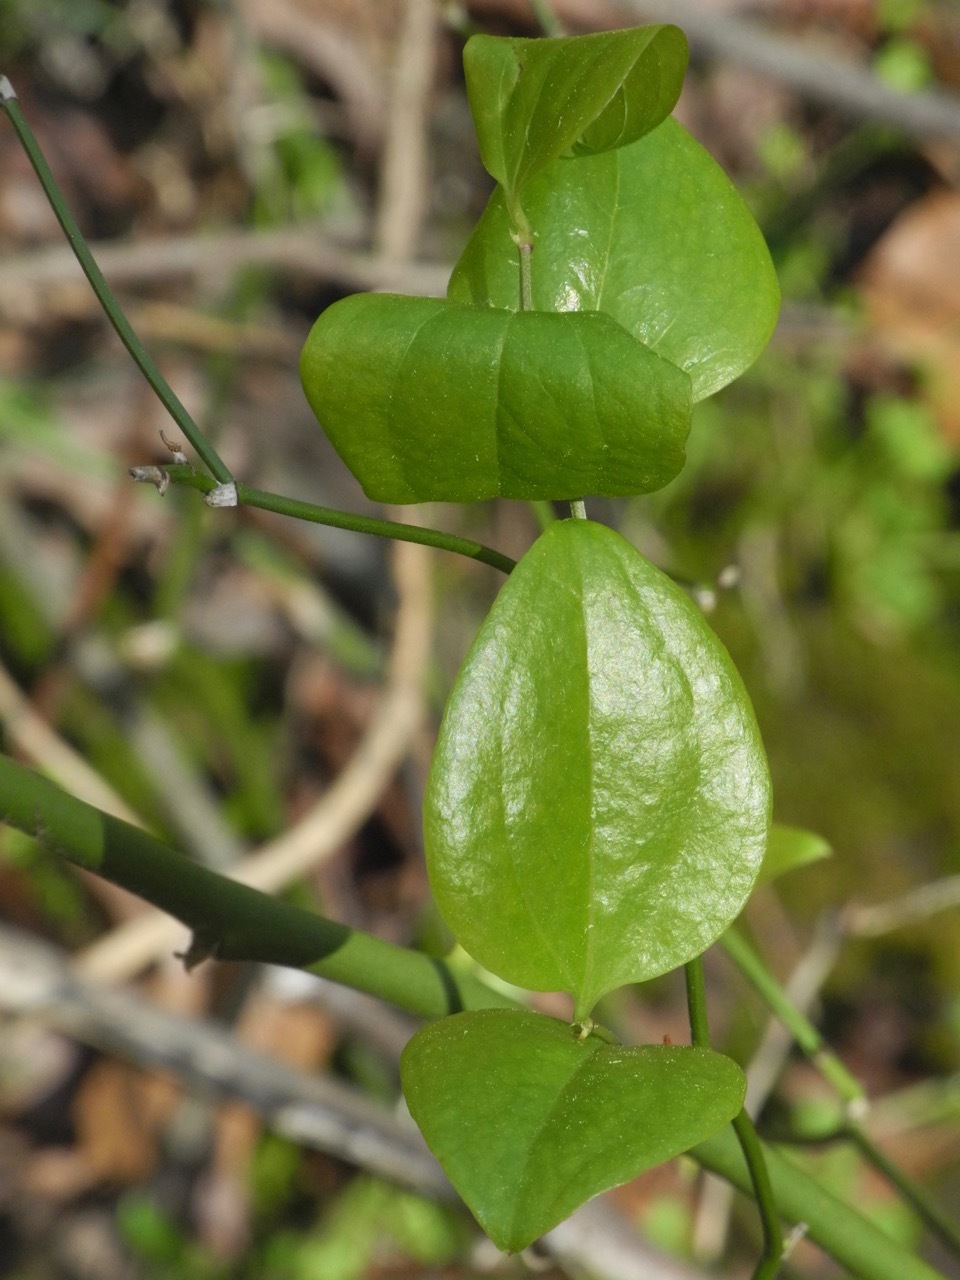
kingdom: Plantae
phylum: Tracheophyta
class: Liliopsida
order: Liliales
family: Smilacaceae
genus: Smilax
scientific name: Smilax rotundifolia
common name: Bullbriar
